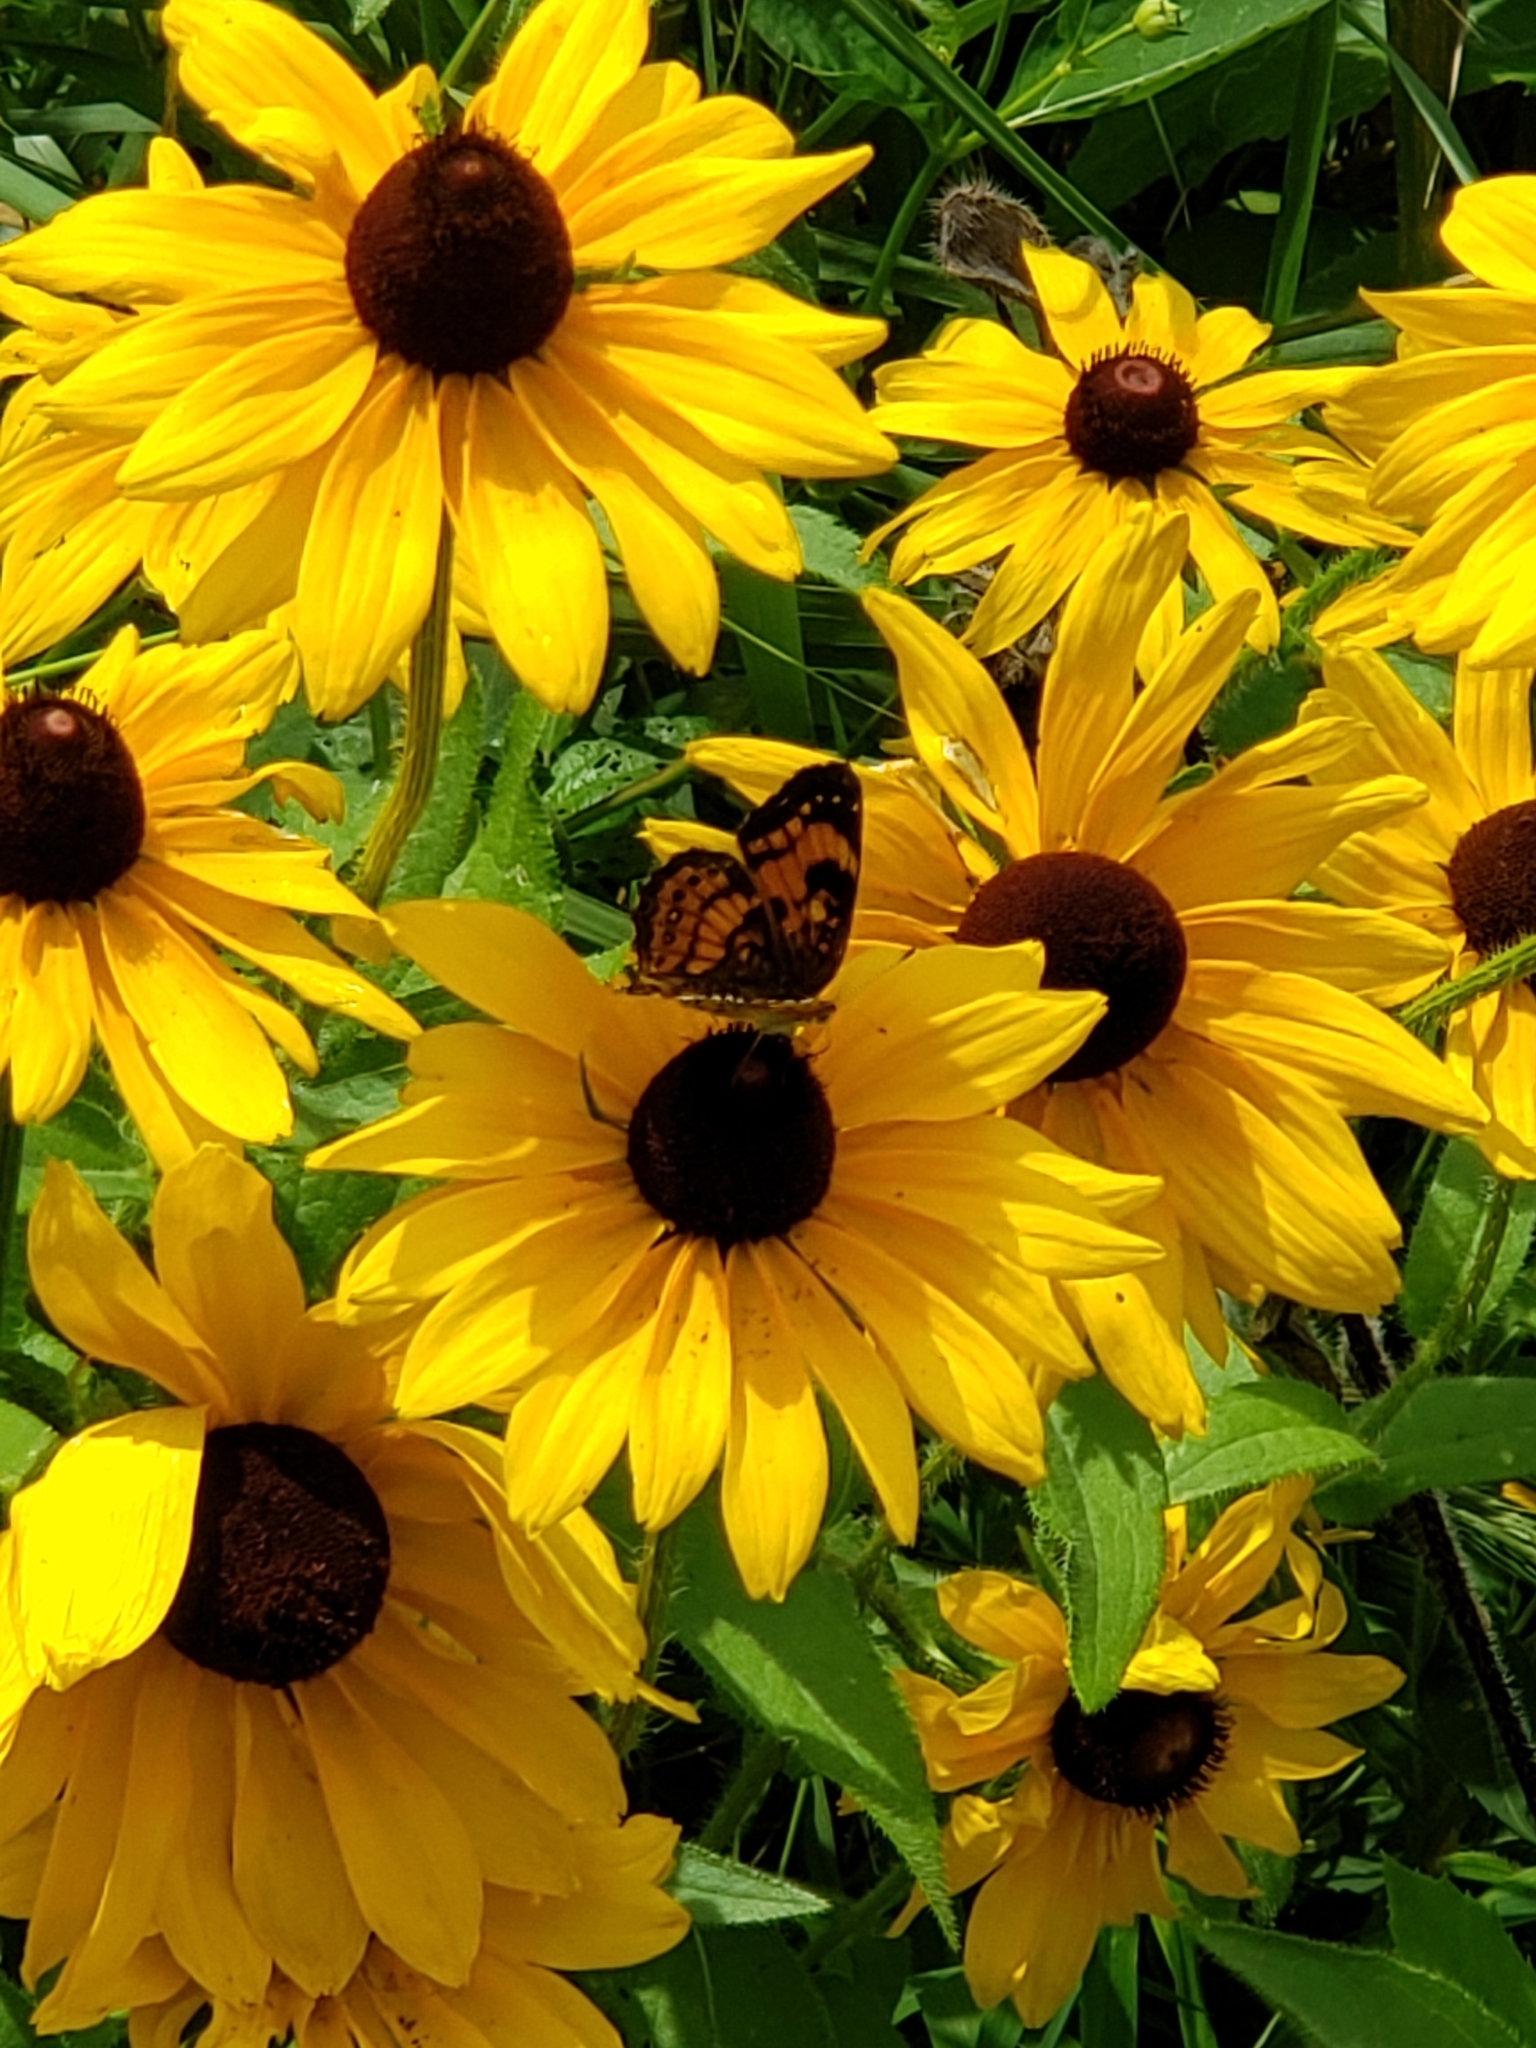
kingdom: Animalia
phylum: Arthropoda
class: Insecta
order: Lepidoptera
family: Nymphalidae
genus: Chlosyne
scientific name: Chlosyne nycteis
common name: Silvery checkerspot
